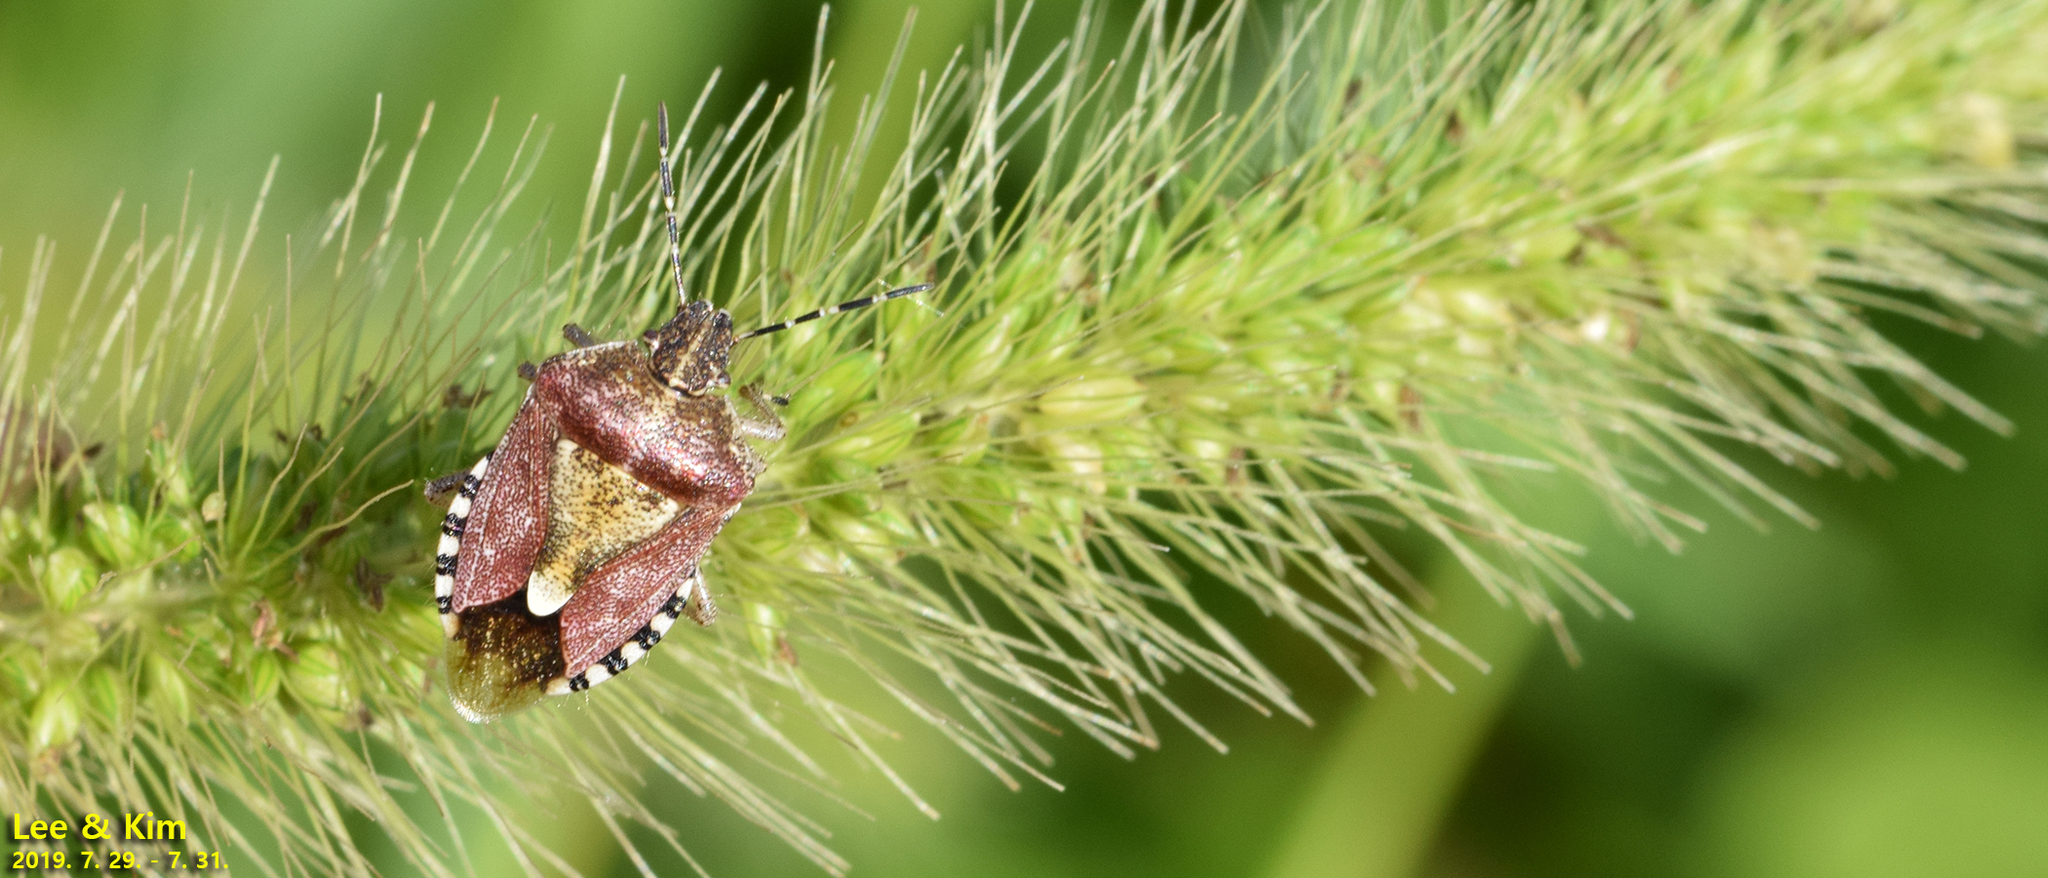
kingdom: Animalia
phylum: Arthropoda
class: Insecta
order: Hemiptera
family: Pentatomidae
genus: Dolycoris
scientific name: Dolycoris baccarum
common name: Sloe bug
